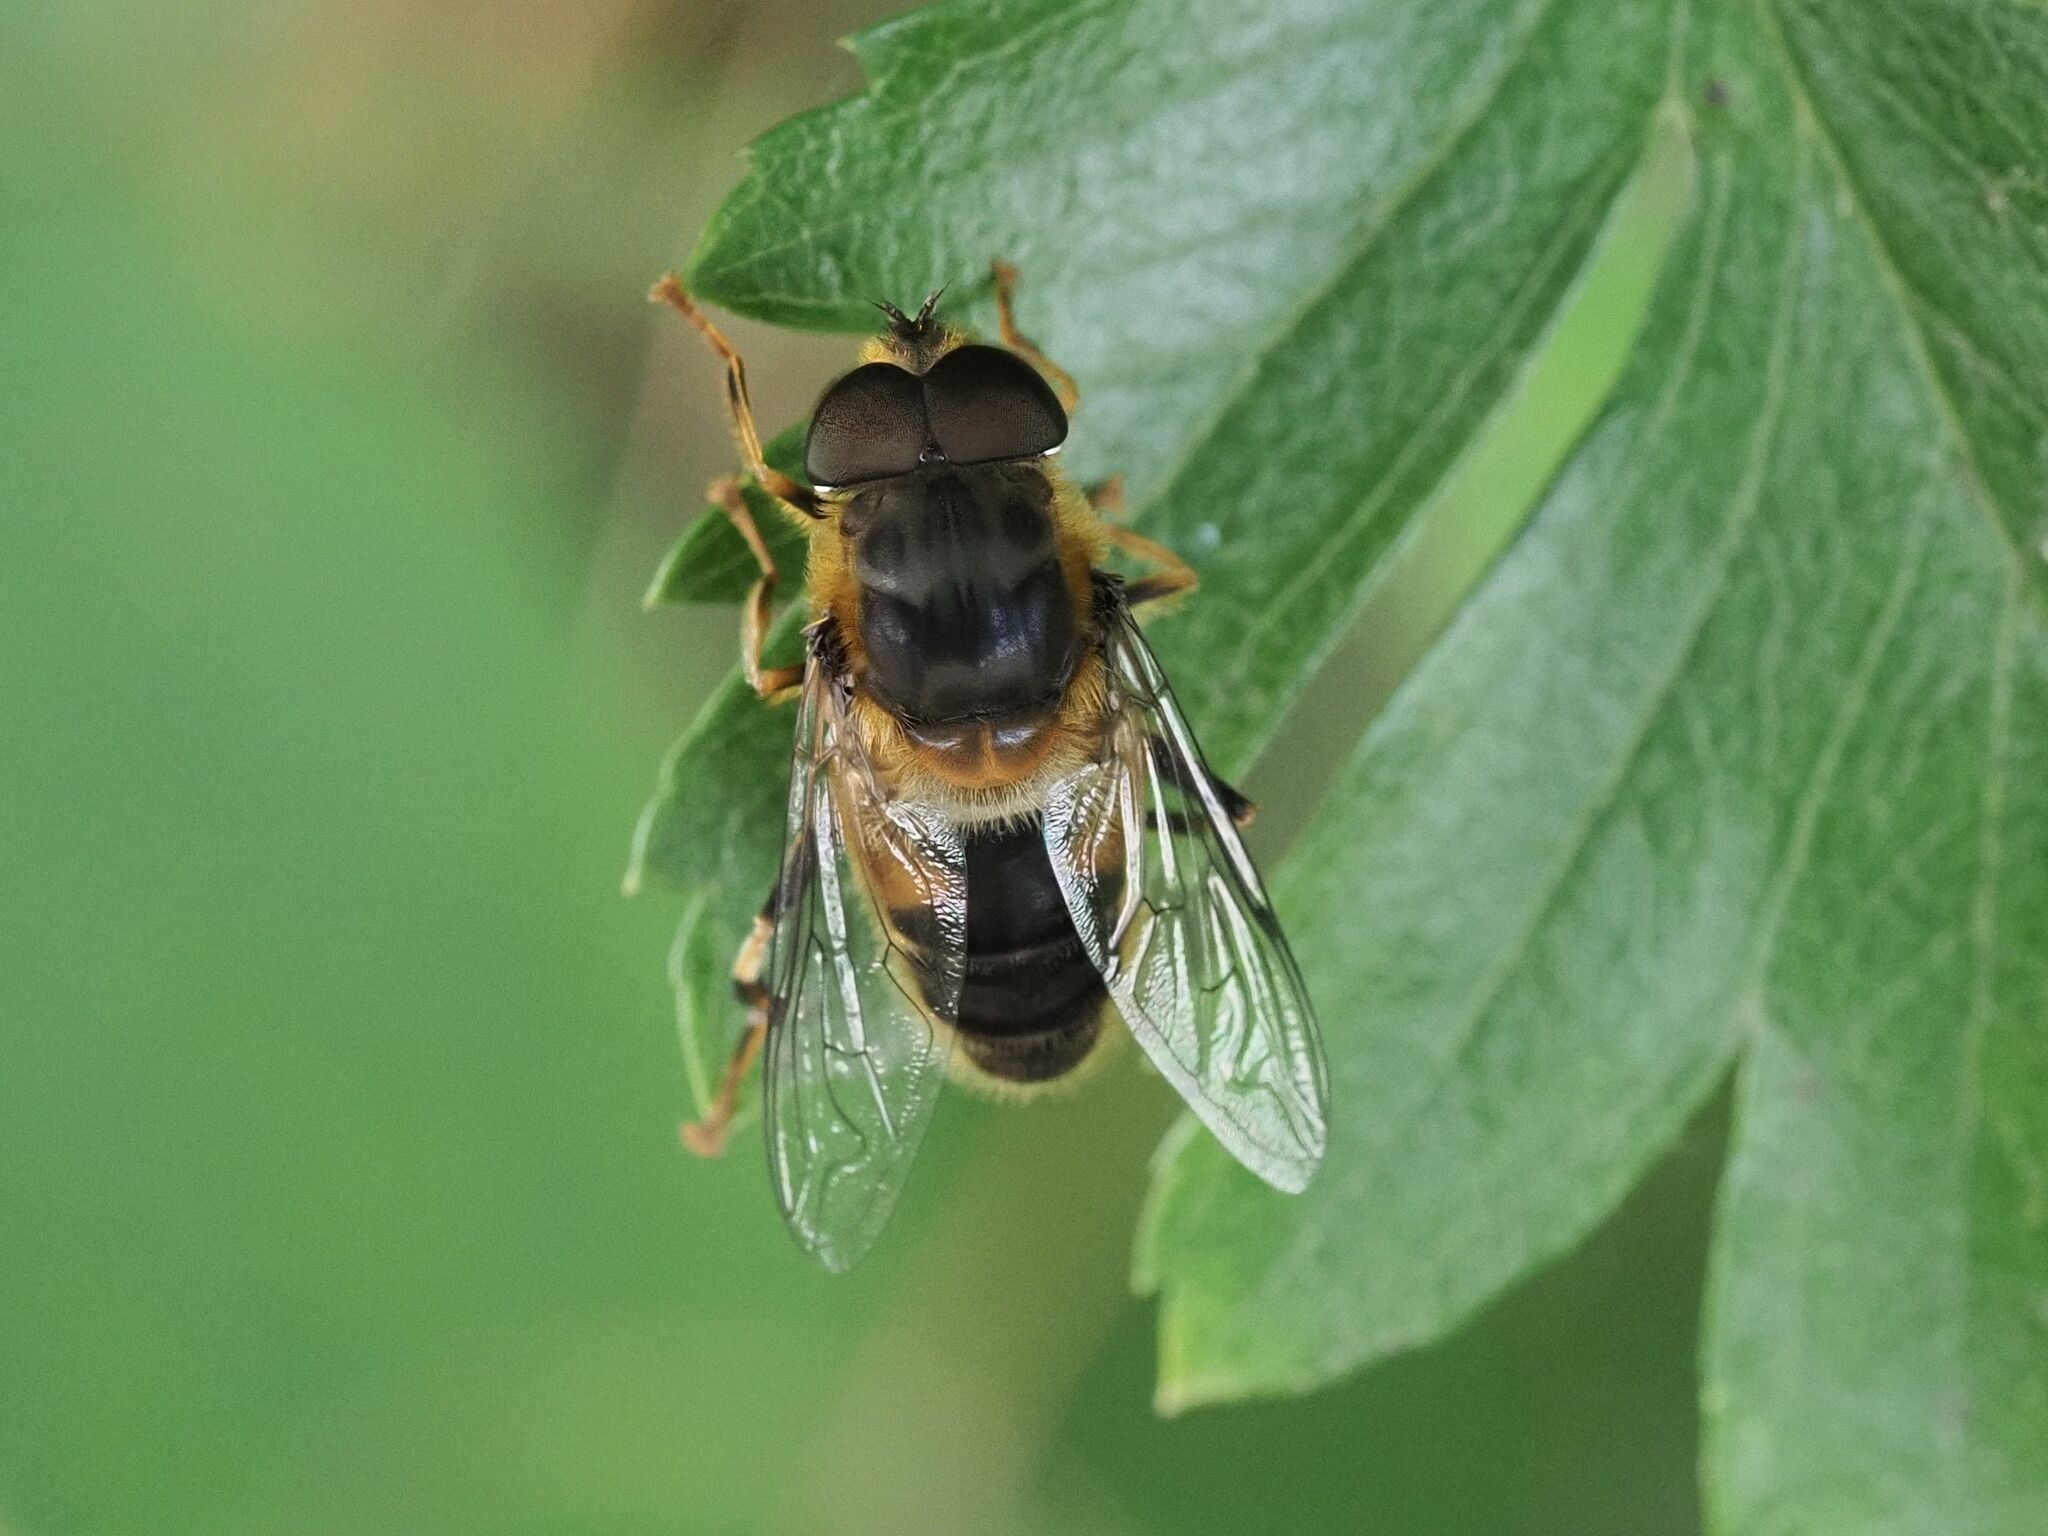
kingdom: Animalia
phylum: Arthropoda
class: Insecta
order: Diptera
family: Syrphidae
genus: Eristalis
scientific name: Eristalis pertinax
